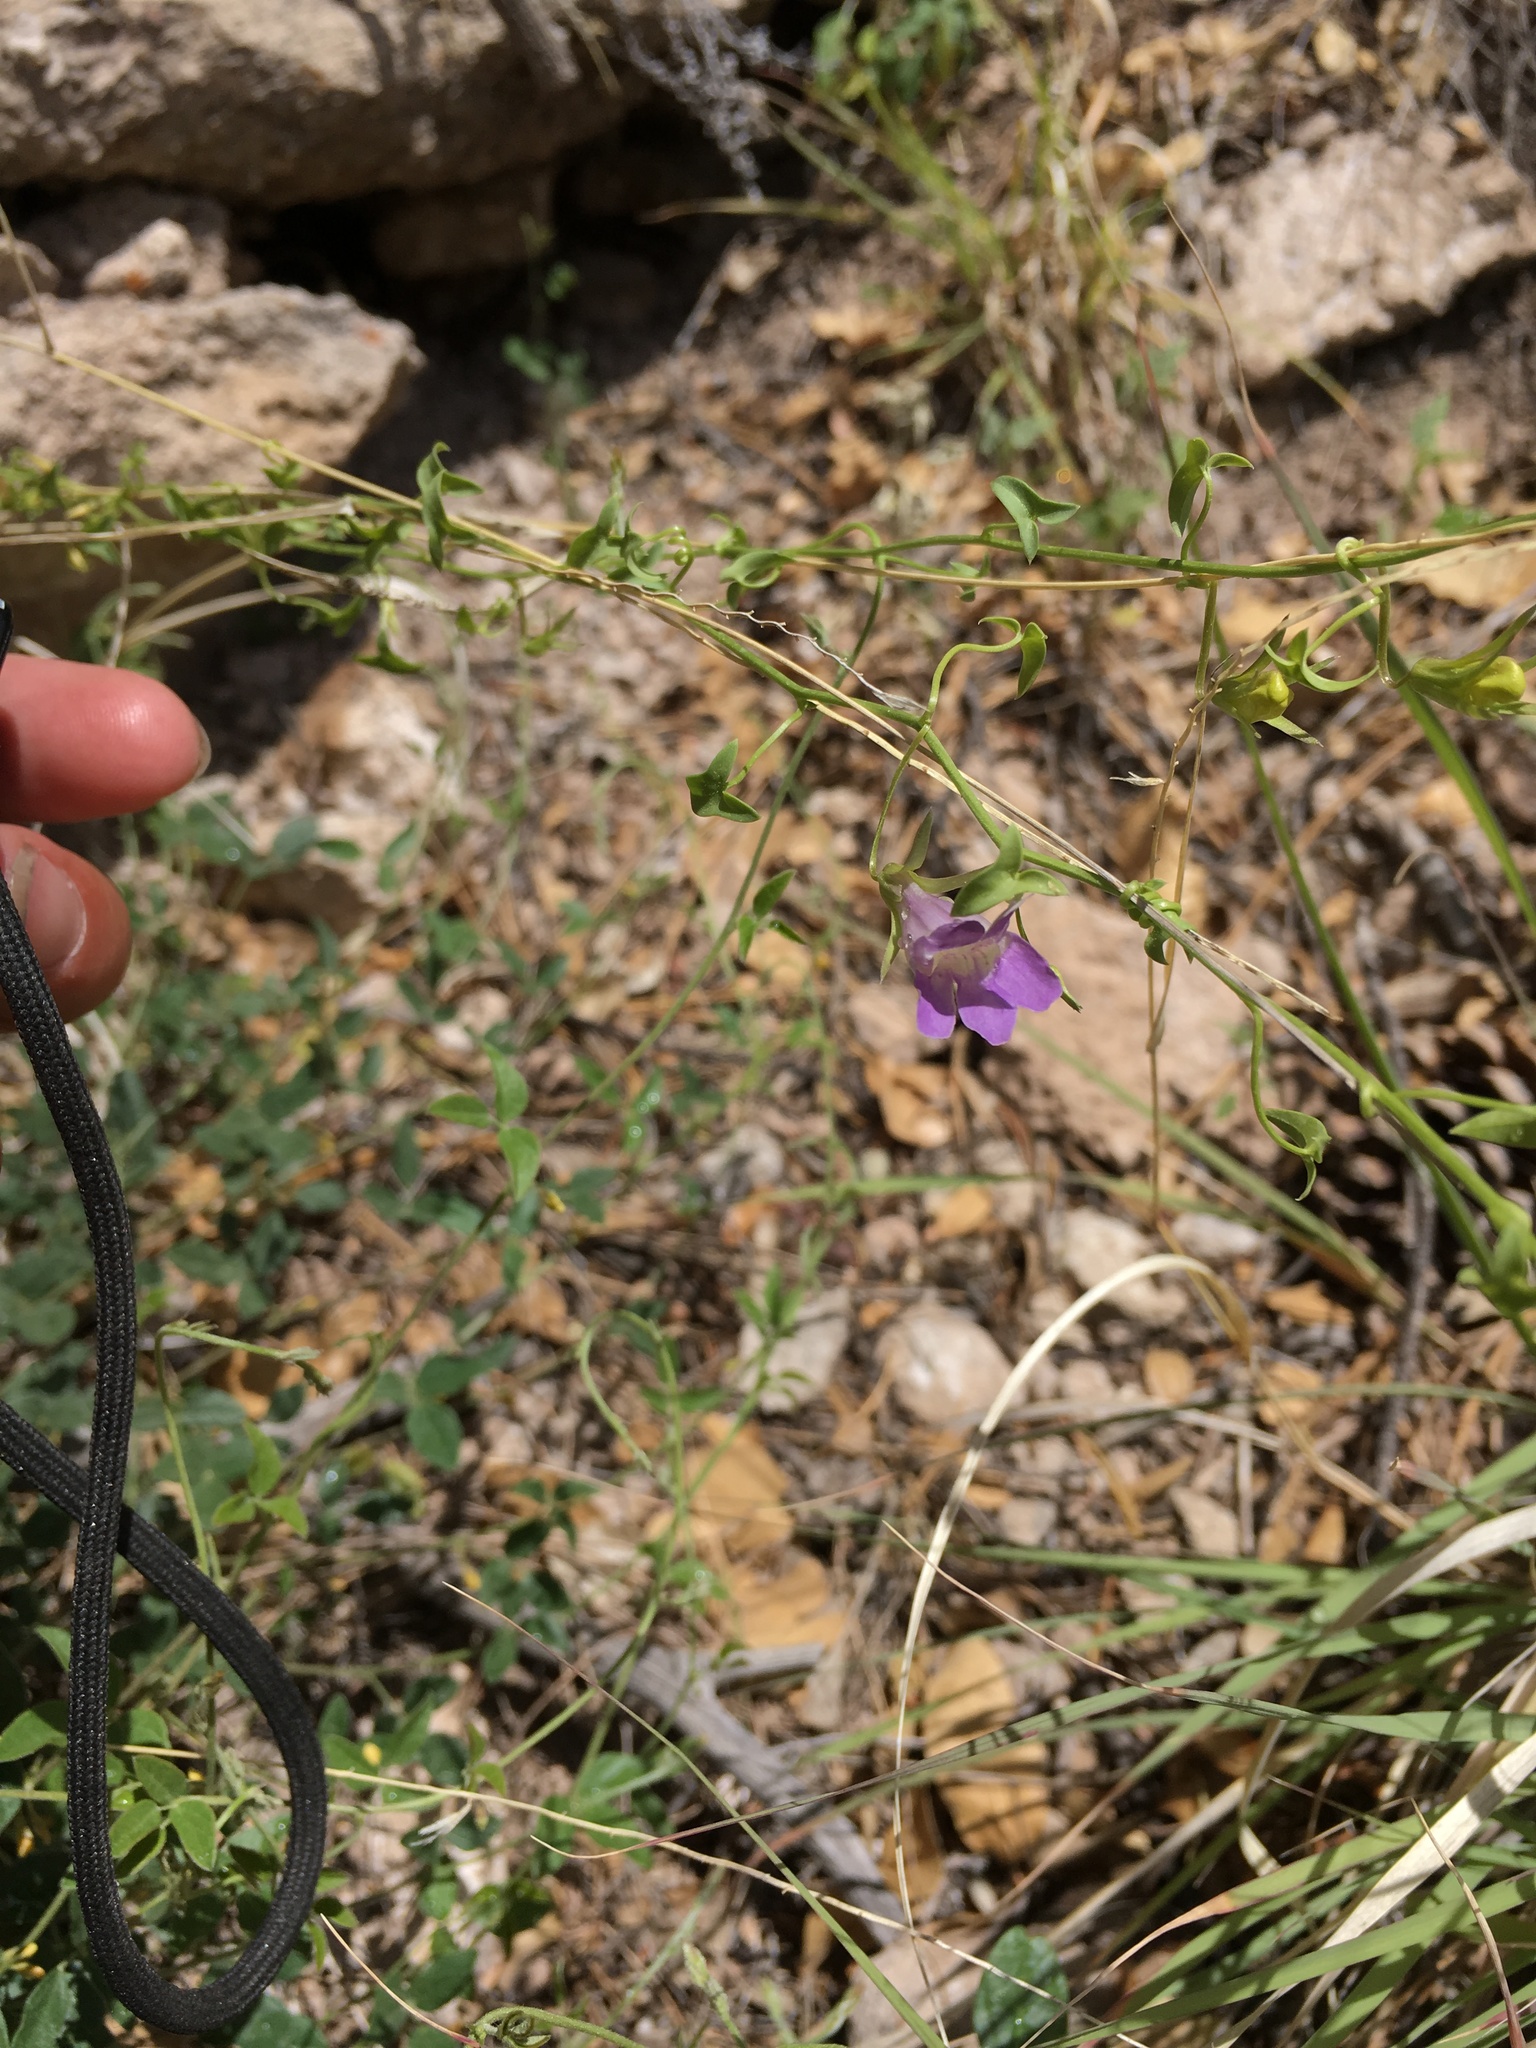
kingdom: Plantae
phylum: Tracheophyta
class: Magnoliopsida
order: Lamiales
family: Plantaginaceae
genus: Maurandella
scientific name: Maurandella antirrhiniflora
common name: Violet twining-snapdragon
